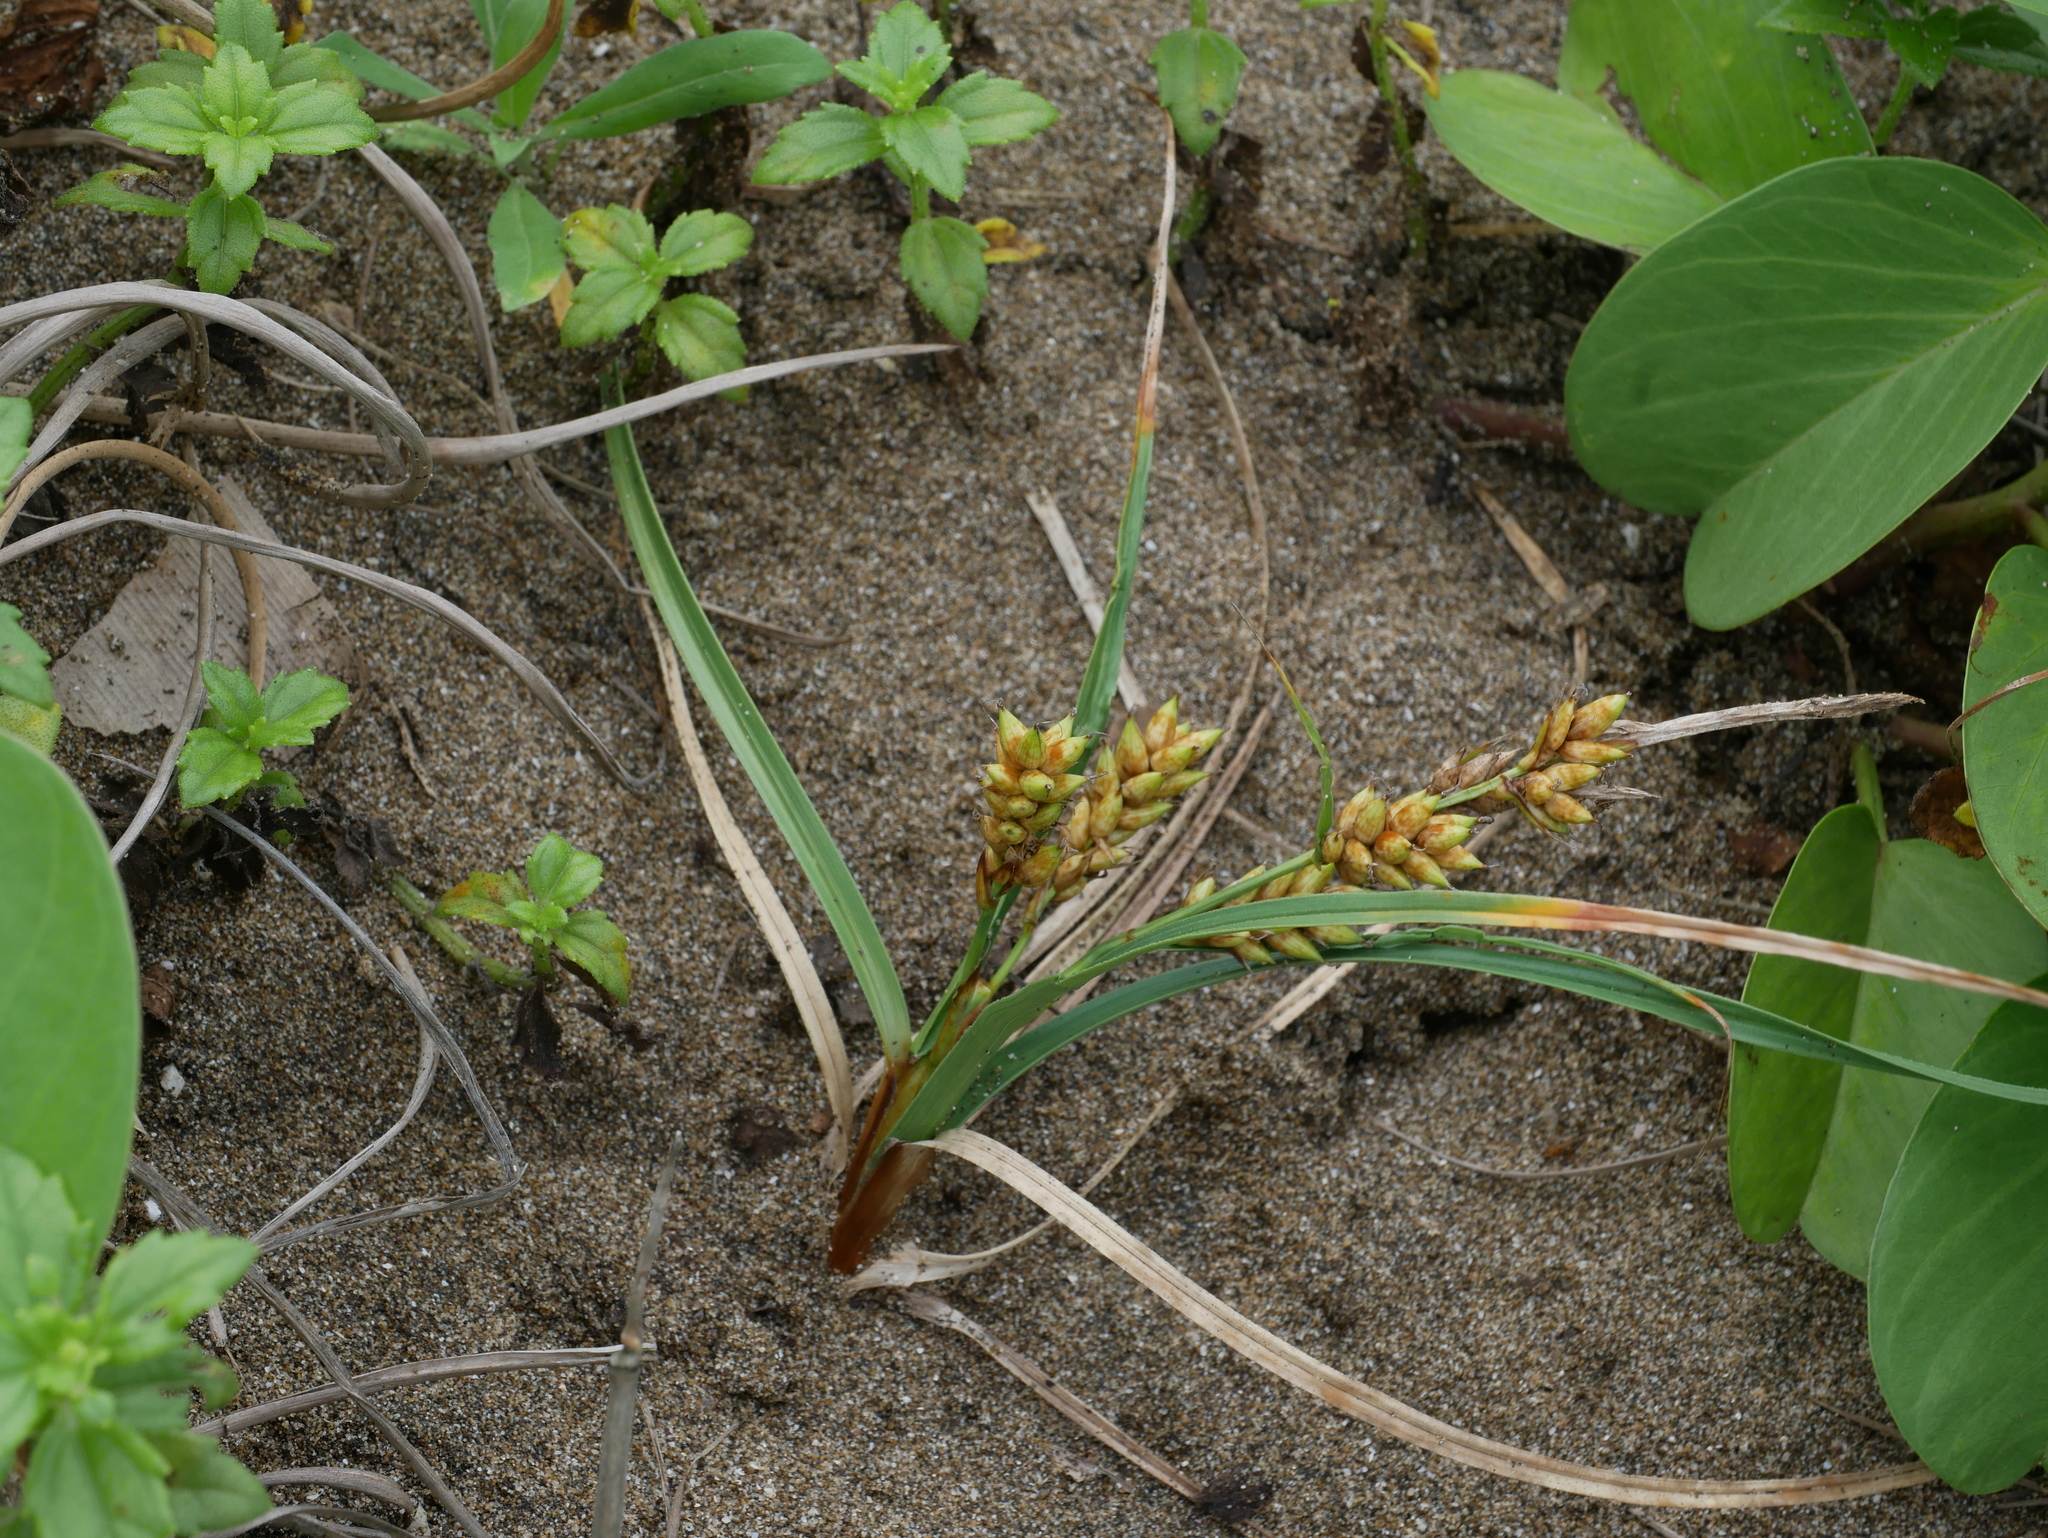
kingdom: Plantae
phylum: Tracheophyta
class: Liliopsida
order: Poales
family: Cyperaceae
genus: Carex
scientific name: Carex pumila
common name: Dwarf sedge
